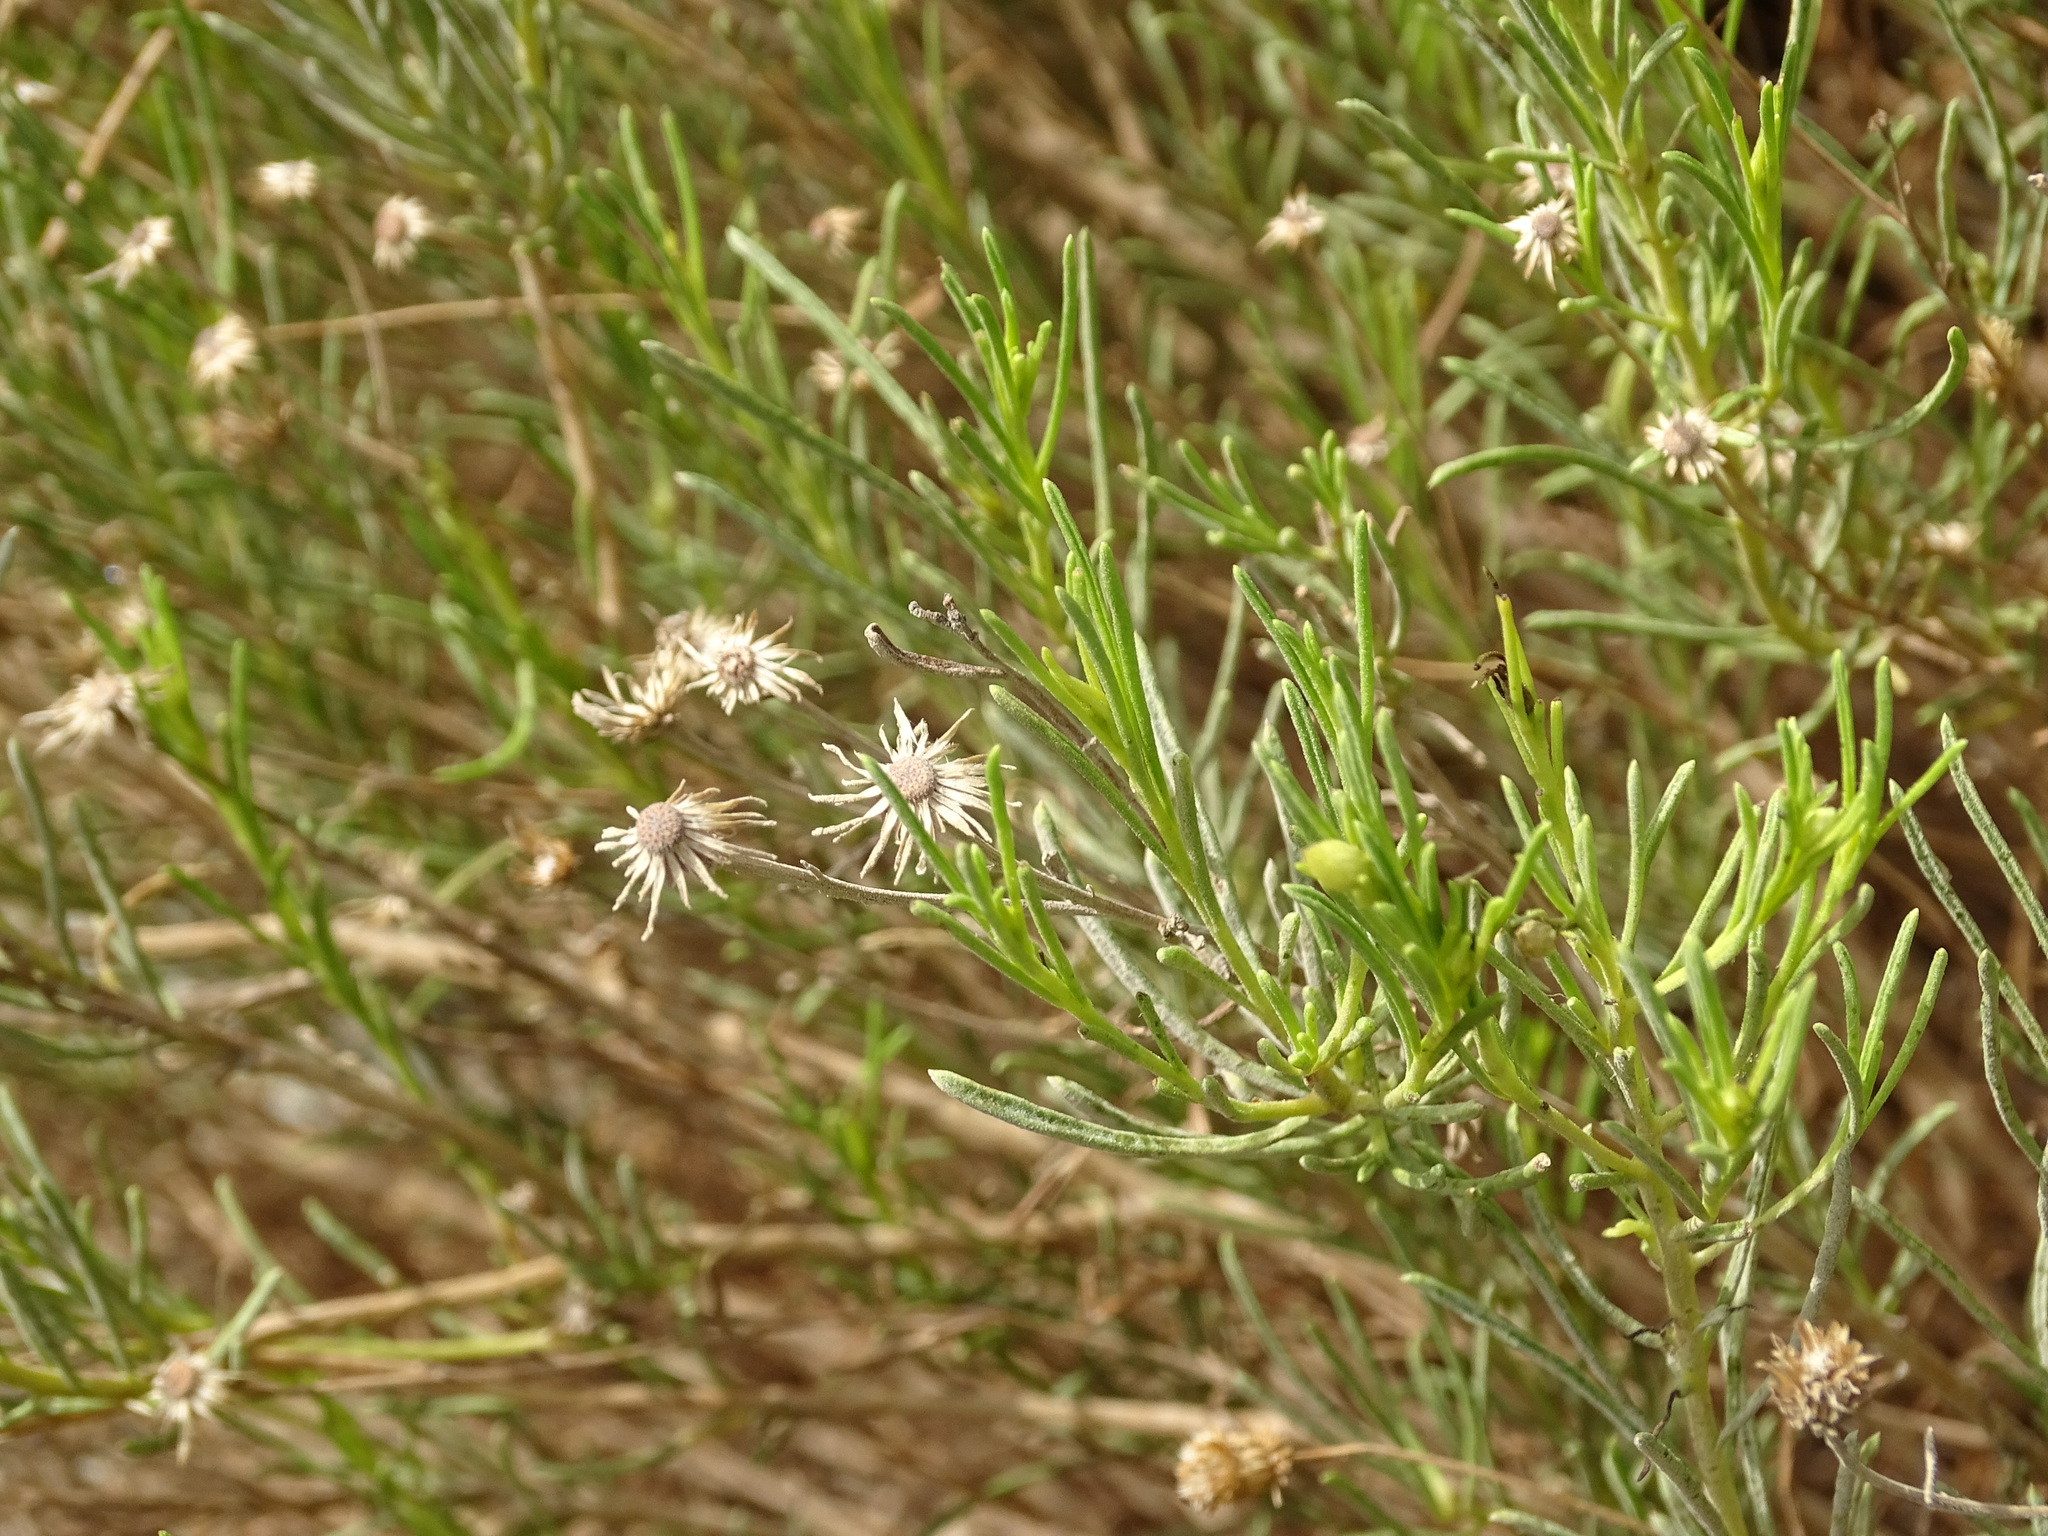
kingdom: Plantae
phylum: Tracheophyta
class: Magnoliopsida
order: Asterales
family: Asteraceae
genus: Pulicaria
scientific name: Pulicaria glutinosa
